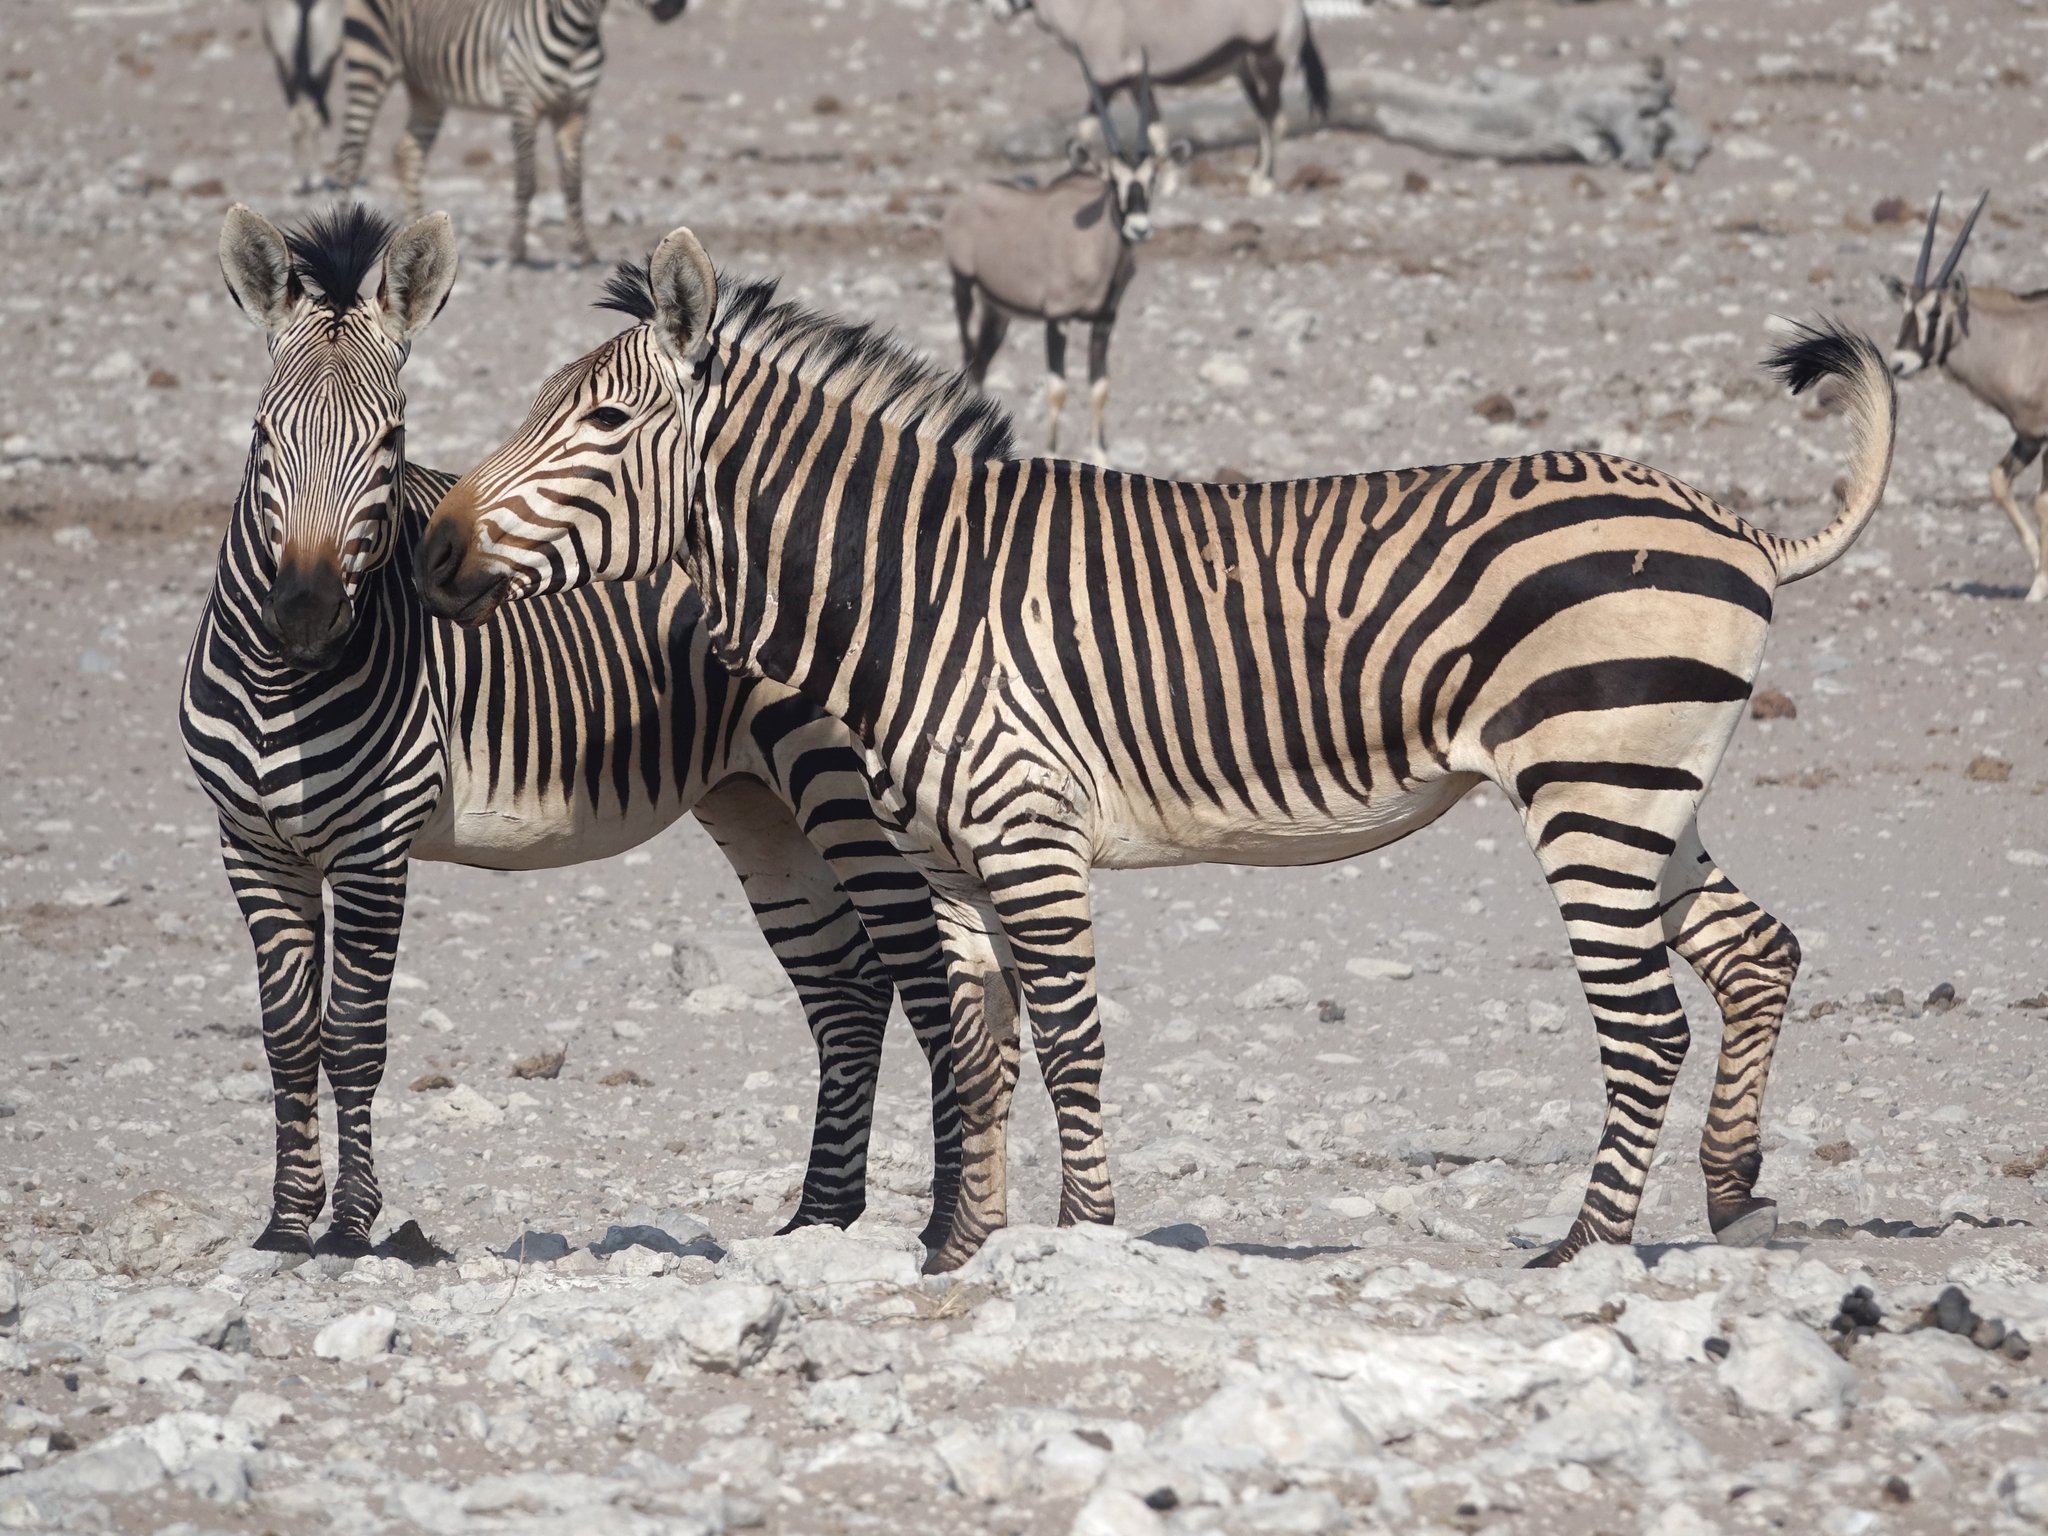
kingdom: Animalia
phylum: Chordata
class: Mammalia
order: Perissodactyla
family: Equidae
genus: Equus
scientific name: Equus hartmannae
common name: Hartmann's mountain zebra
